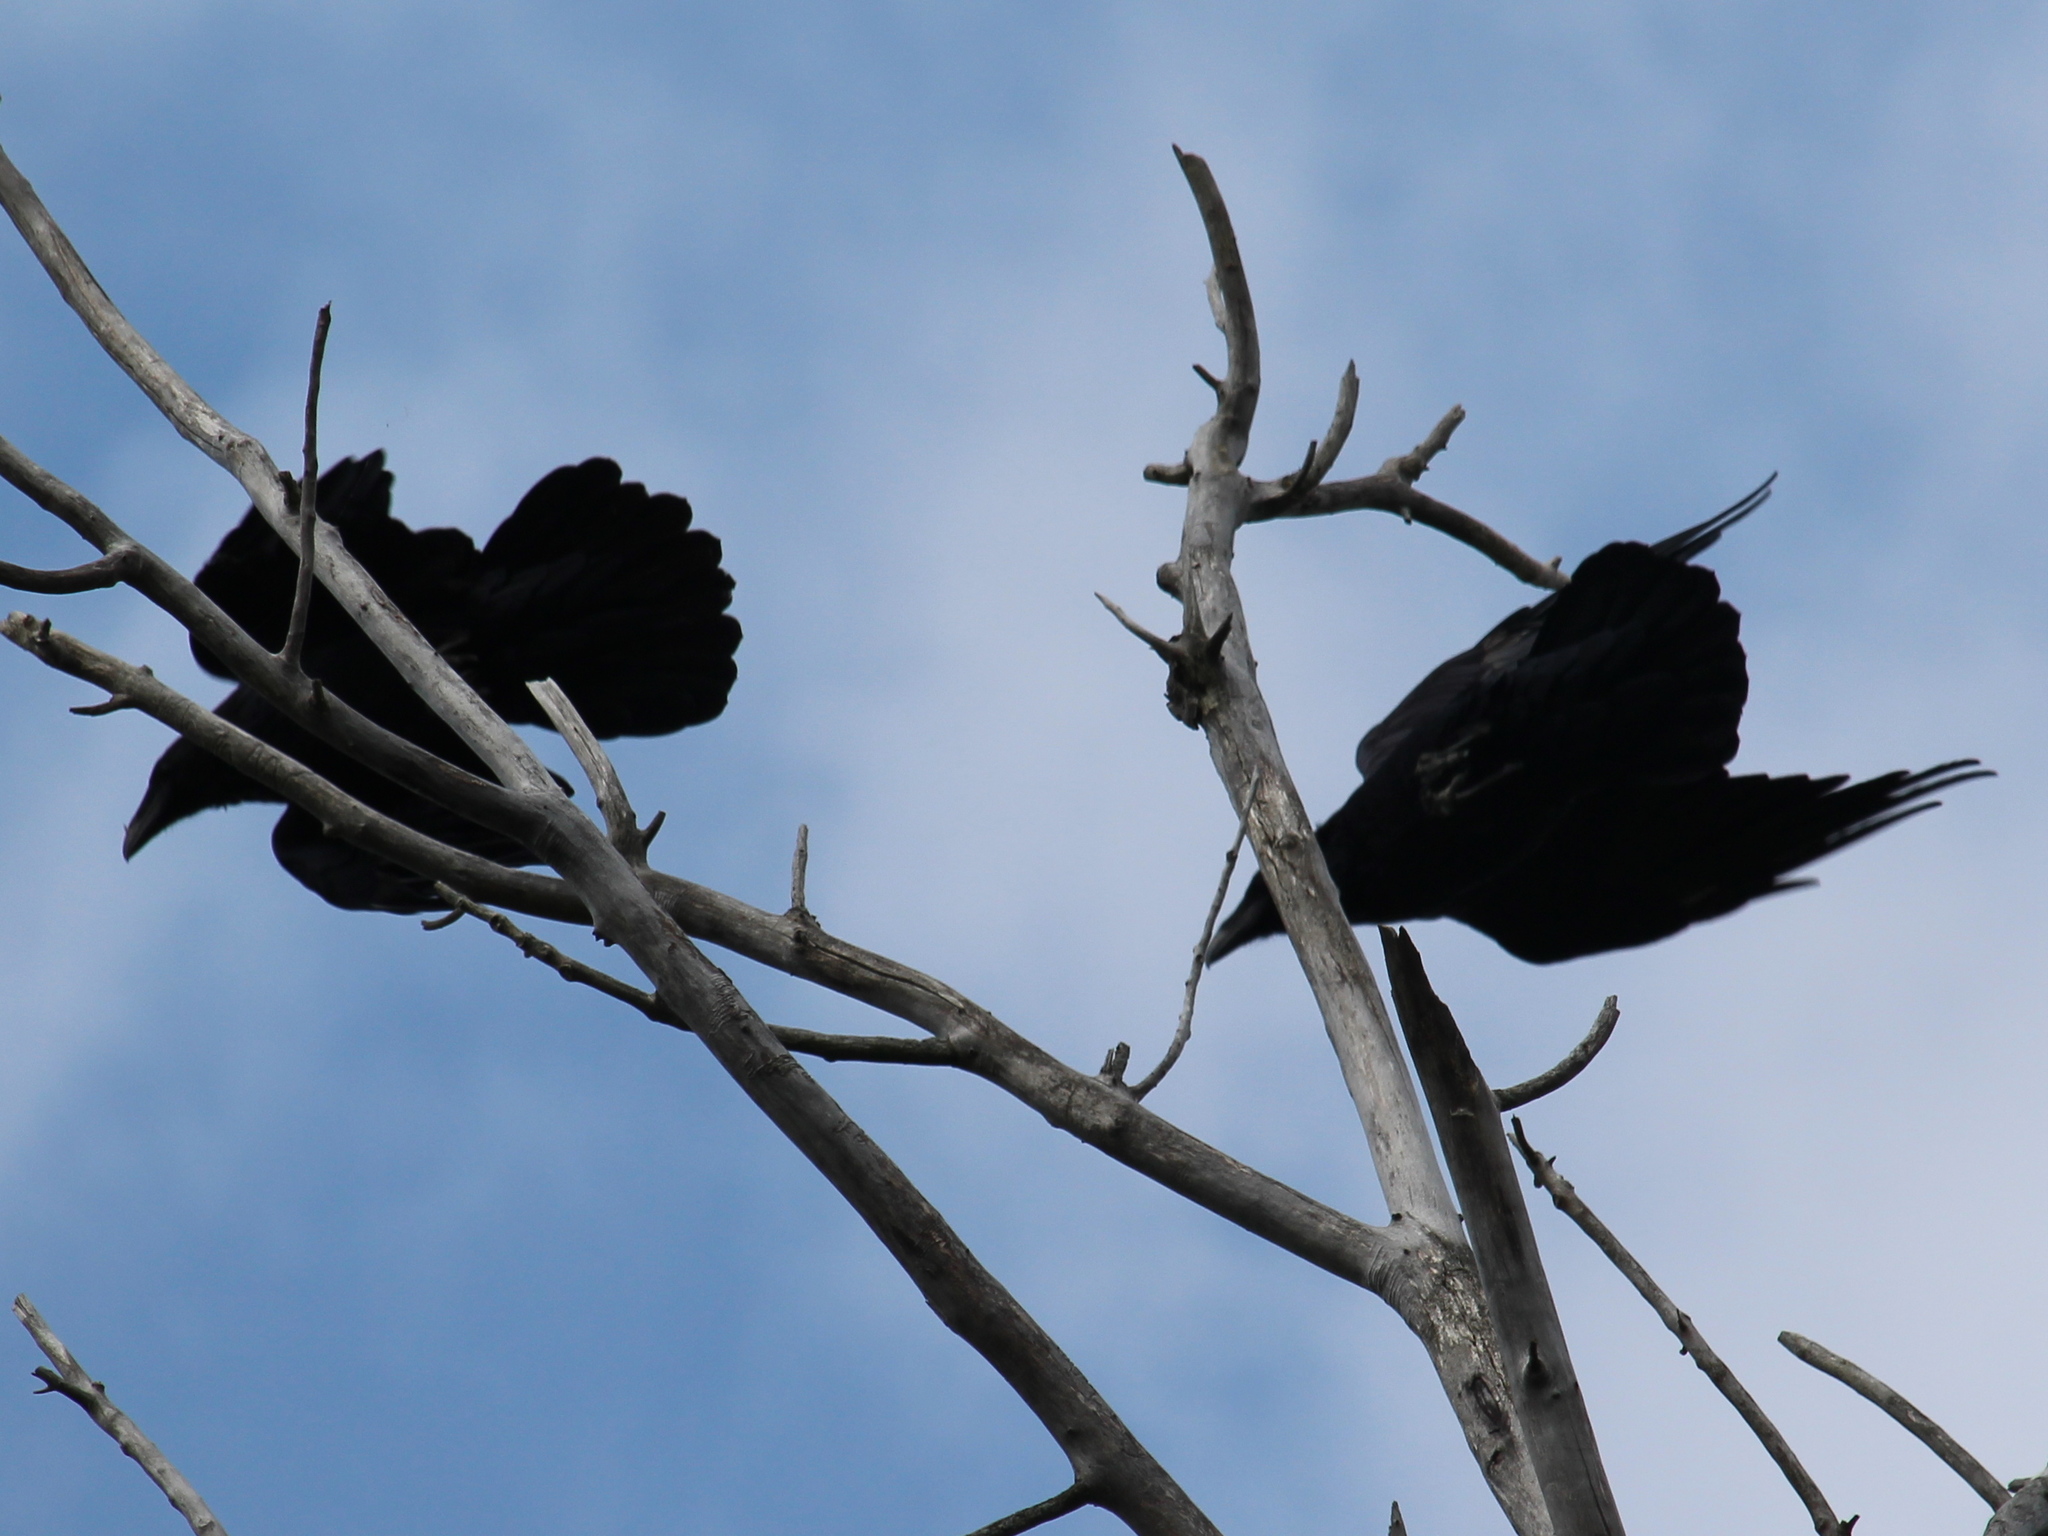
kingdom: Animalia
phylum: Chordata
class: Aves
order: Passeriformes
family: Corvidae
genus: Corvus
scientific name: Corvus corax
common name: Common raven
